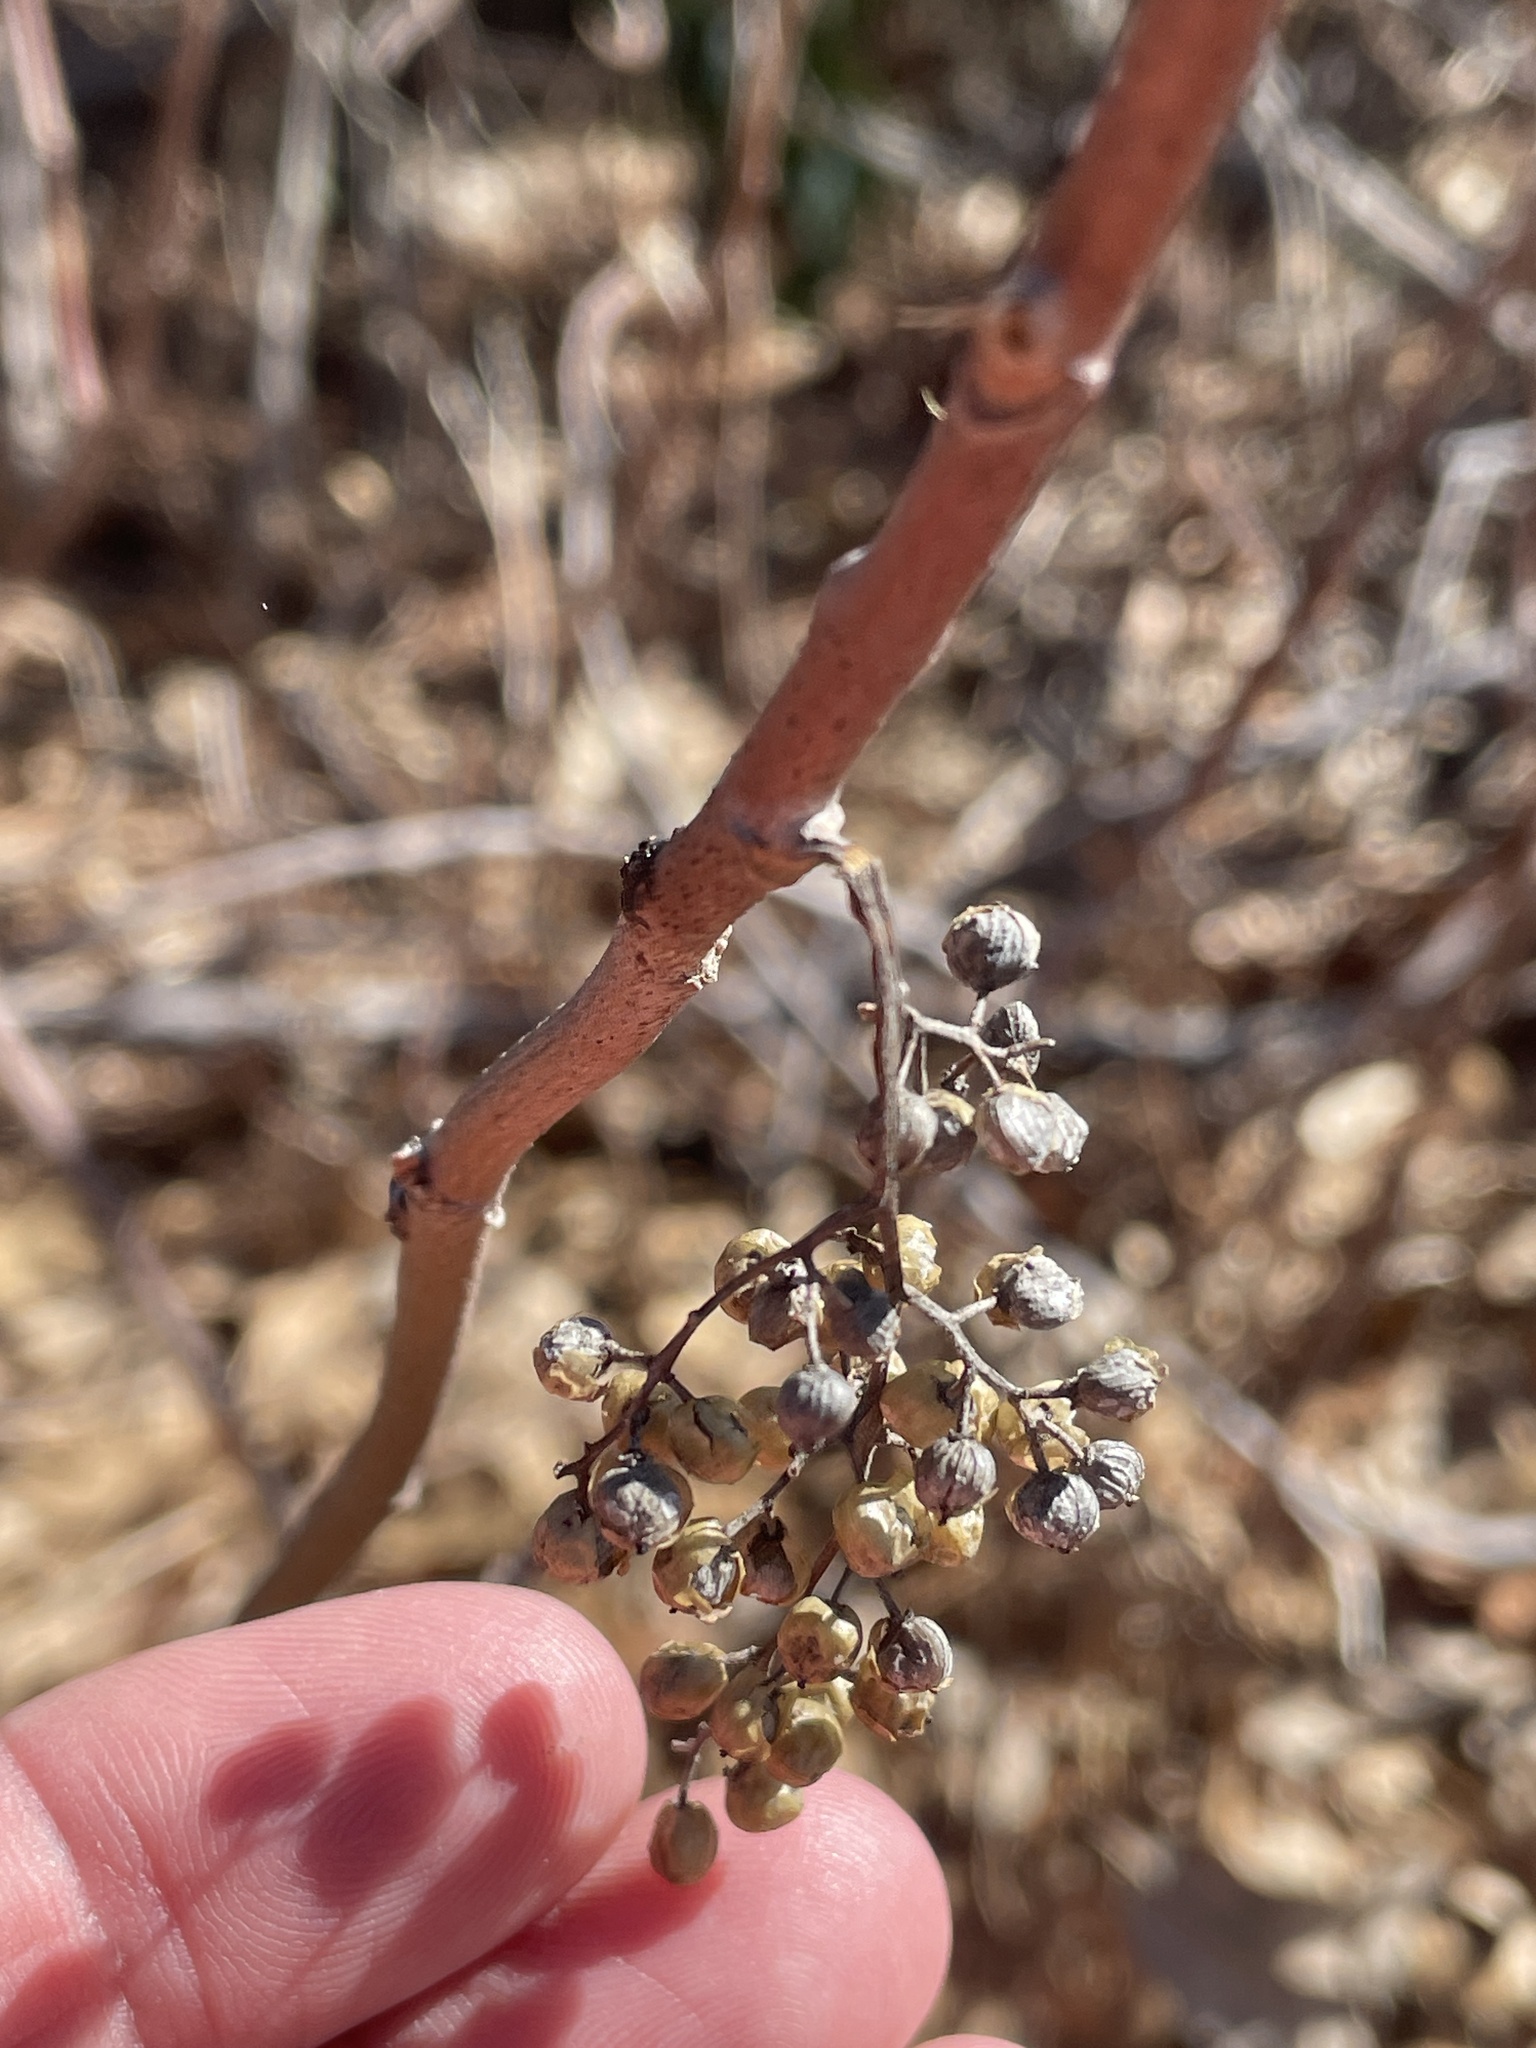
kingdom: Plantae
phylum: Tracheophyta
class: Magnoliopsida
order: Sapindales
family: Anacardiaceae
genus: Toxicodendron
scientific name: Toxicodendron radicans
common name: Poison ivy
